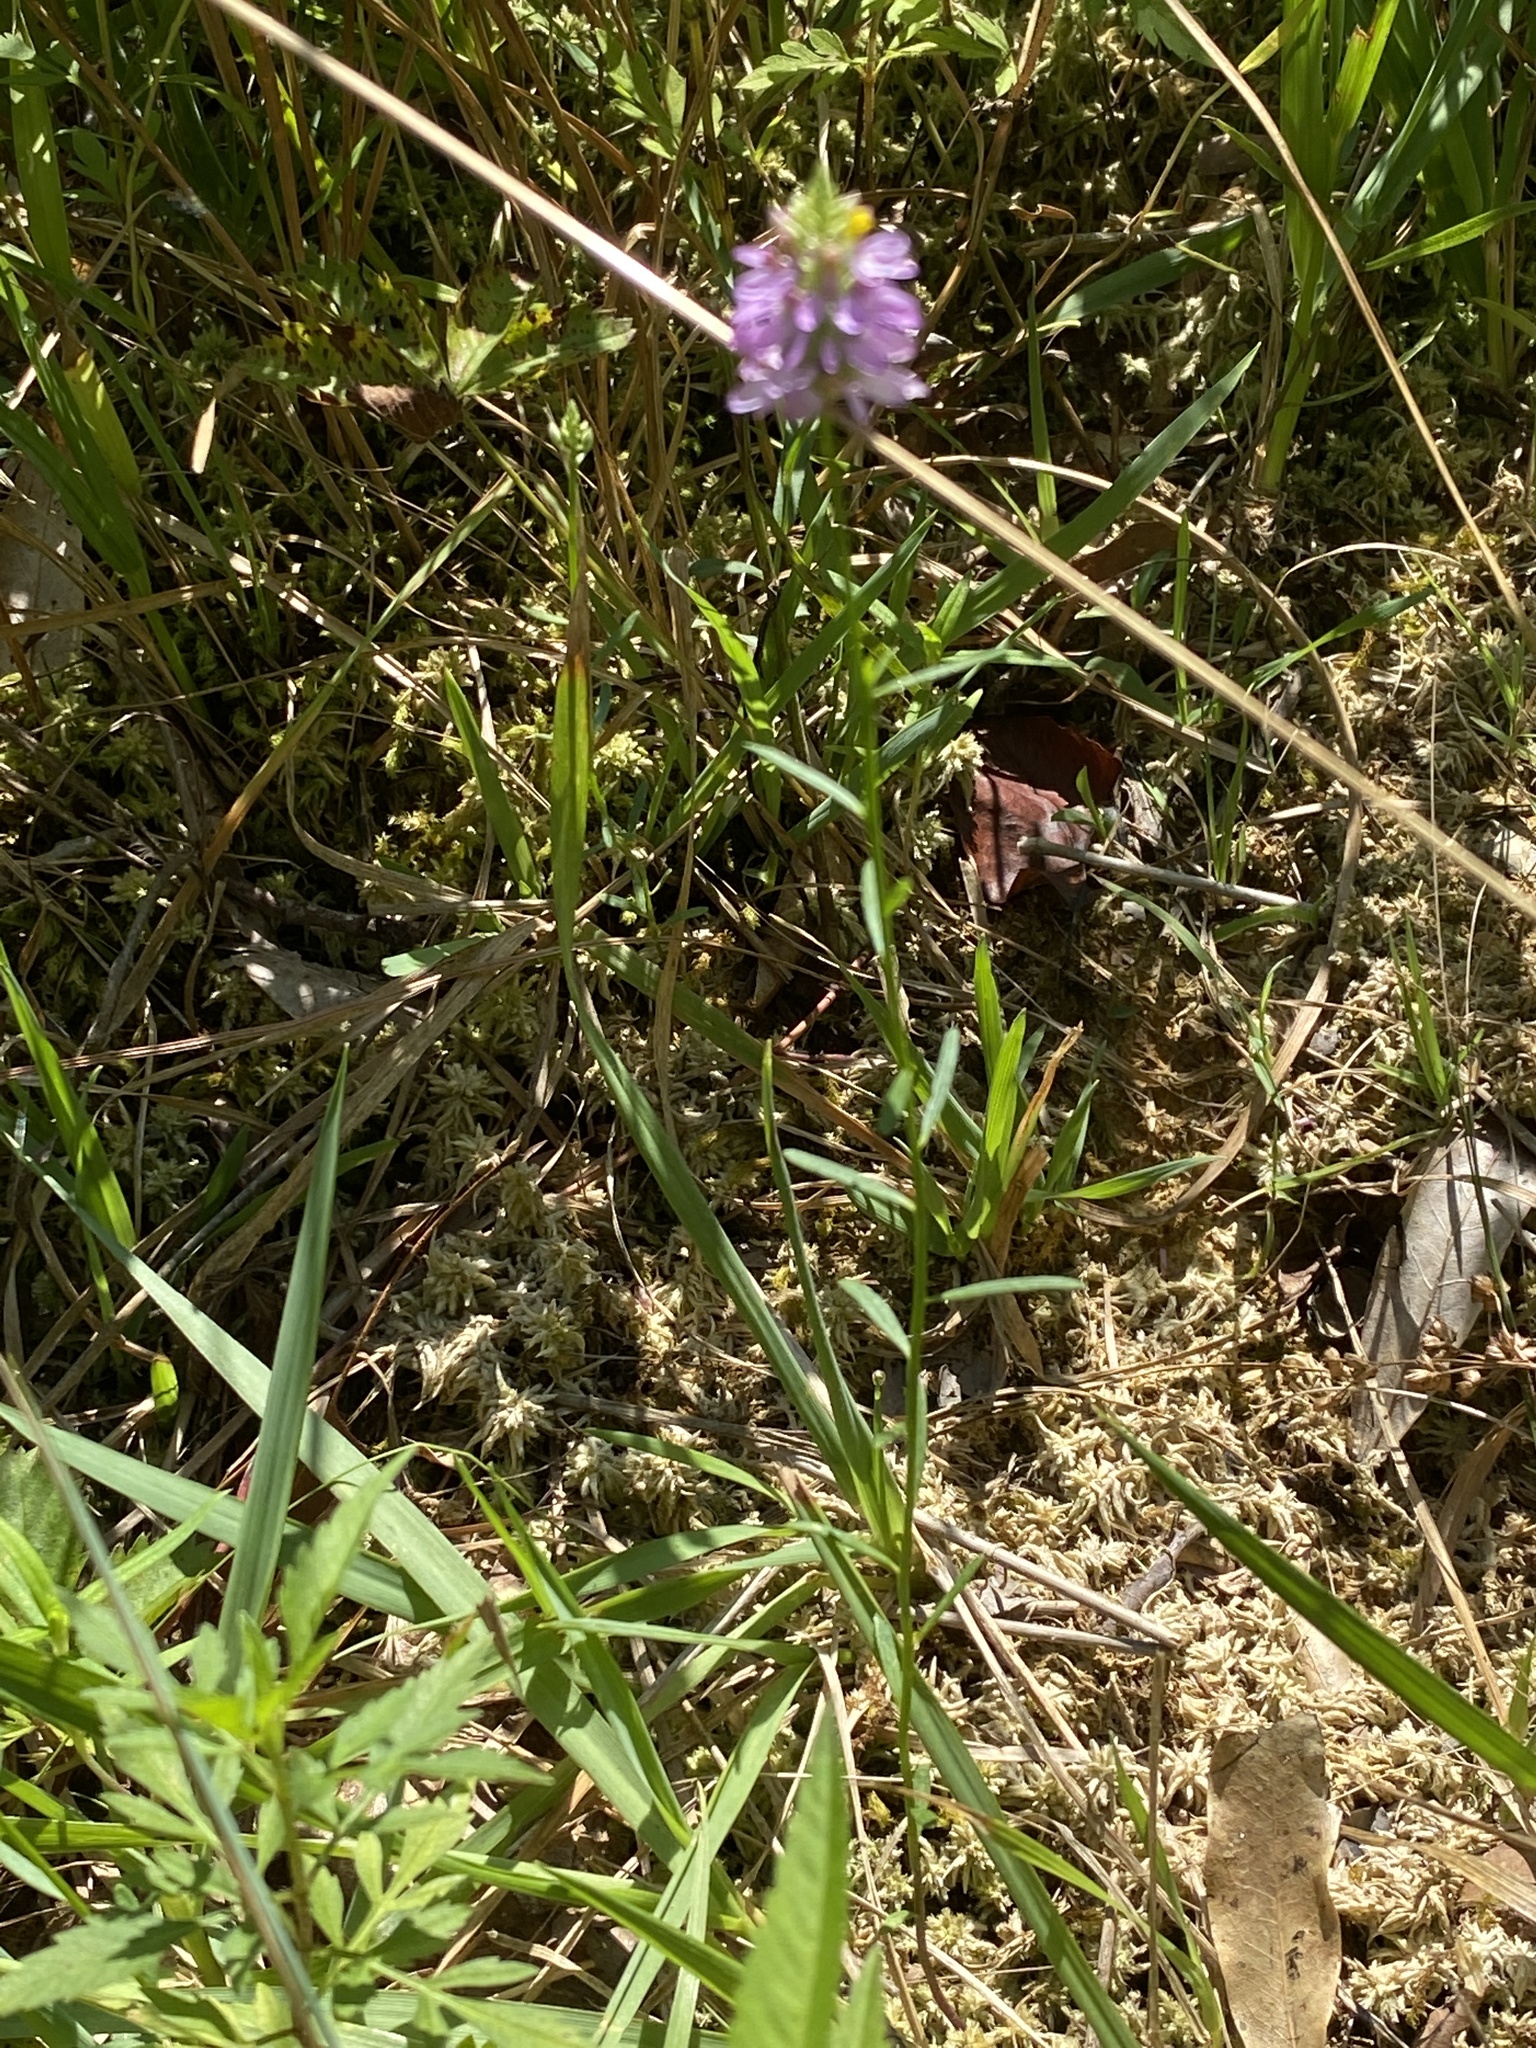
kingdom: Plantae
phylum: Tracheophyta
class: Magnoliopsida
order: Fabales
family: Polygalaceae
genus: Polygala
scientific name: Polygala curtissii
